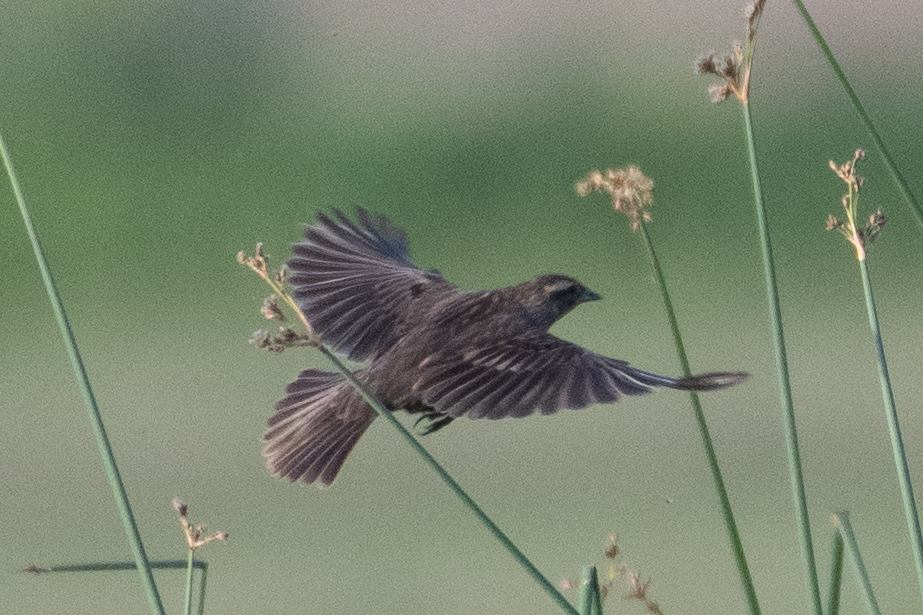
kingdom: Animalia
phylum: Chordata
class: Aves
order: Passeriformes
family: Icteridae
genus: Agelaius
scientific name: Agelaius phoeniceus
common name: Red-winged blackbird
